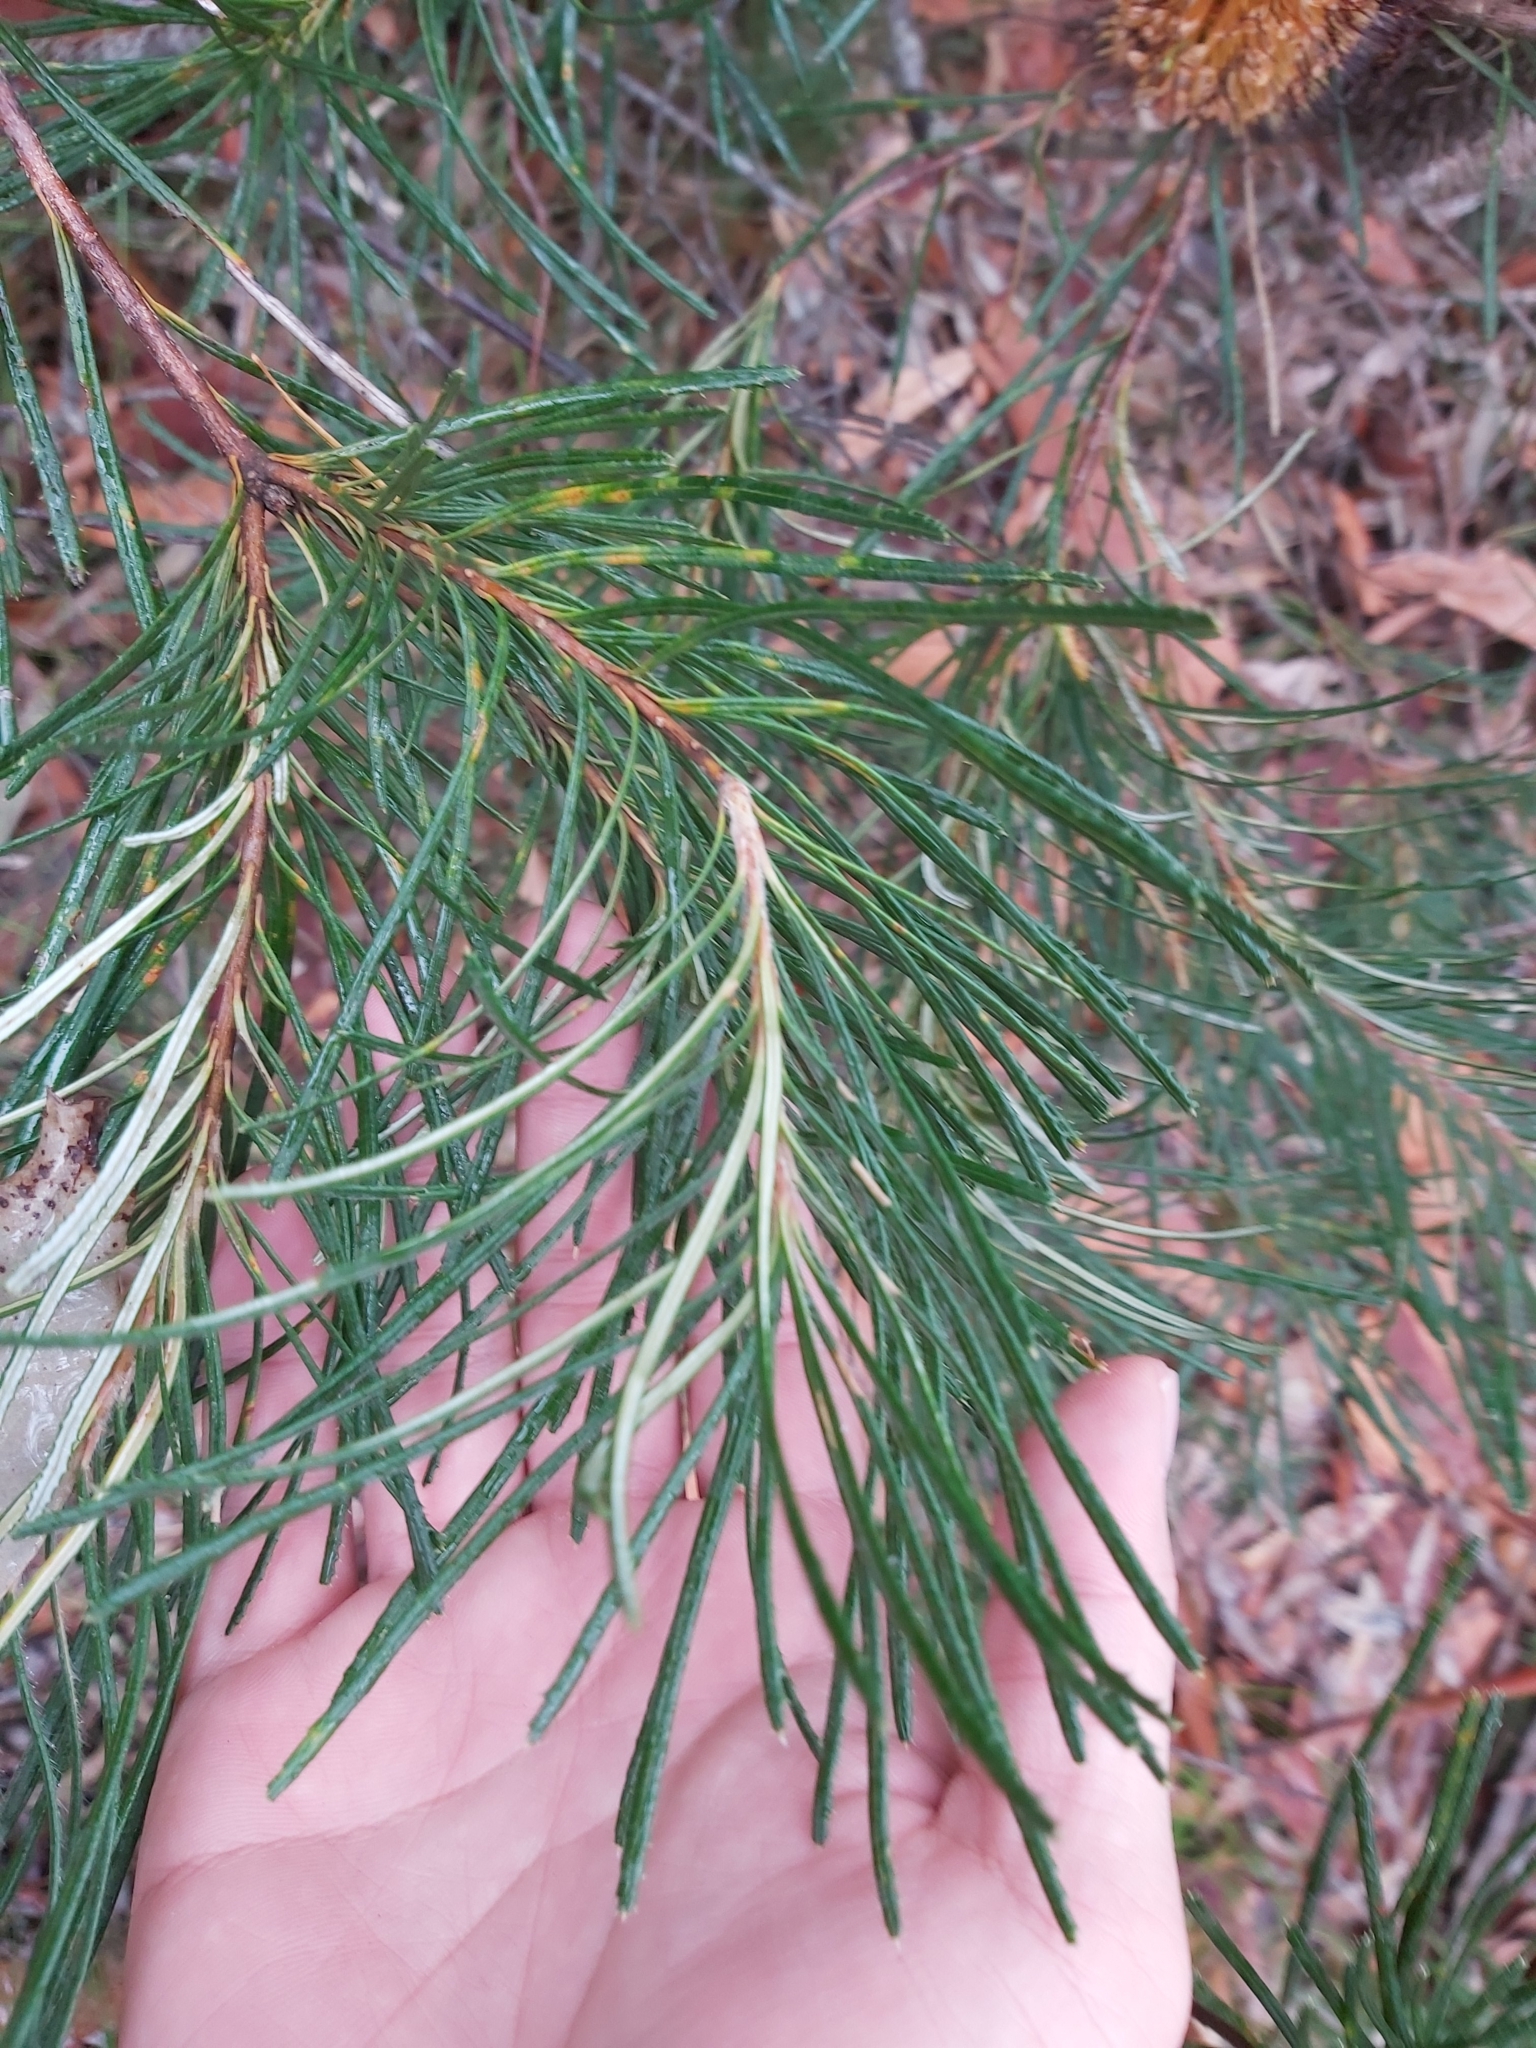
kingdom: Plantae
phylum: Tracheophyta
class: Magnoliopsida
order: Proteales
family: Proteaceae
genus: Banksia
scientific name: Banksia spinulosa
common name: Hairpin banksia
